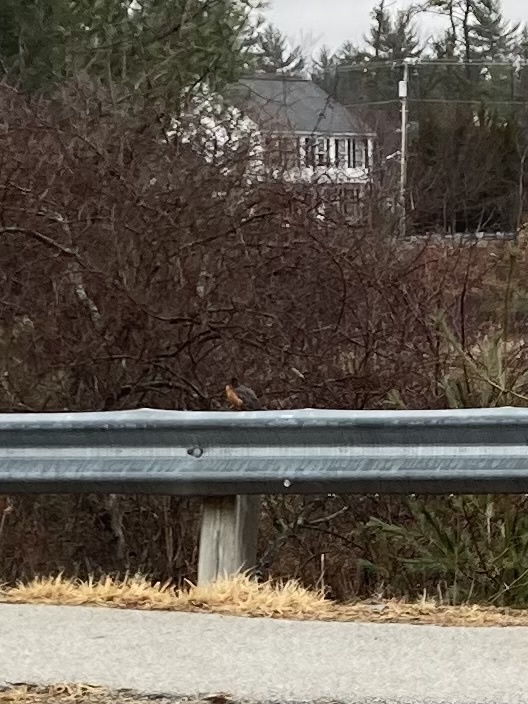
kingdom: Animalia
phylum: Chordata
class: Aves
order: Passeriformes
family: Turdidae
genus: Turdus
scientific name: Turdus migratorius
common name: American robin
